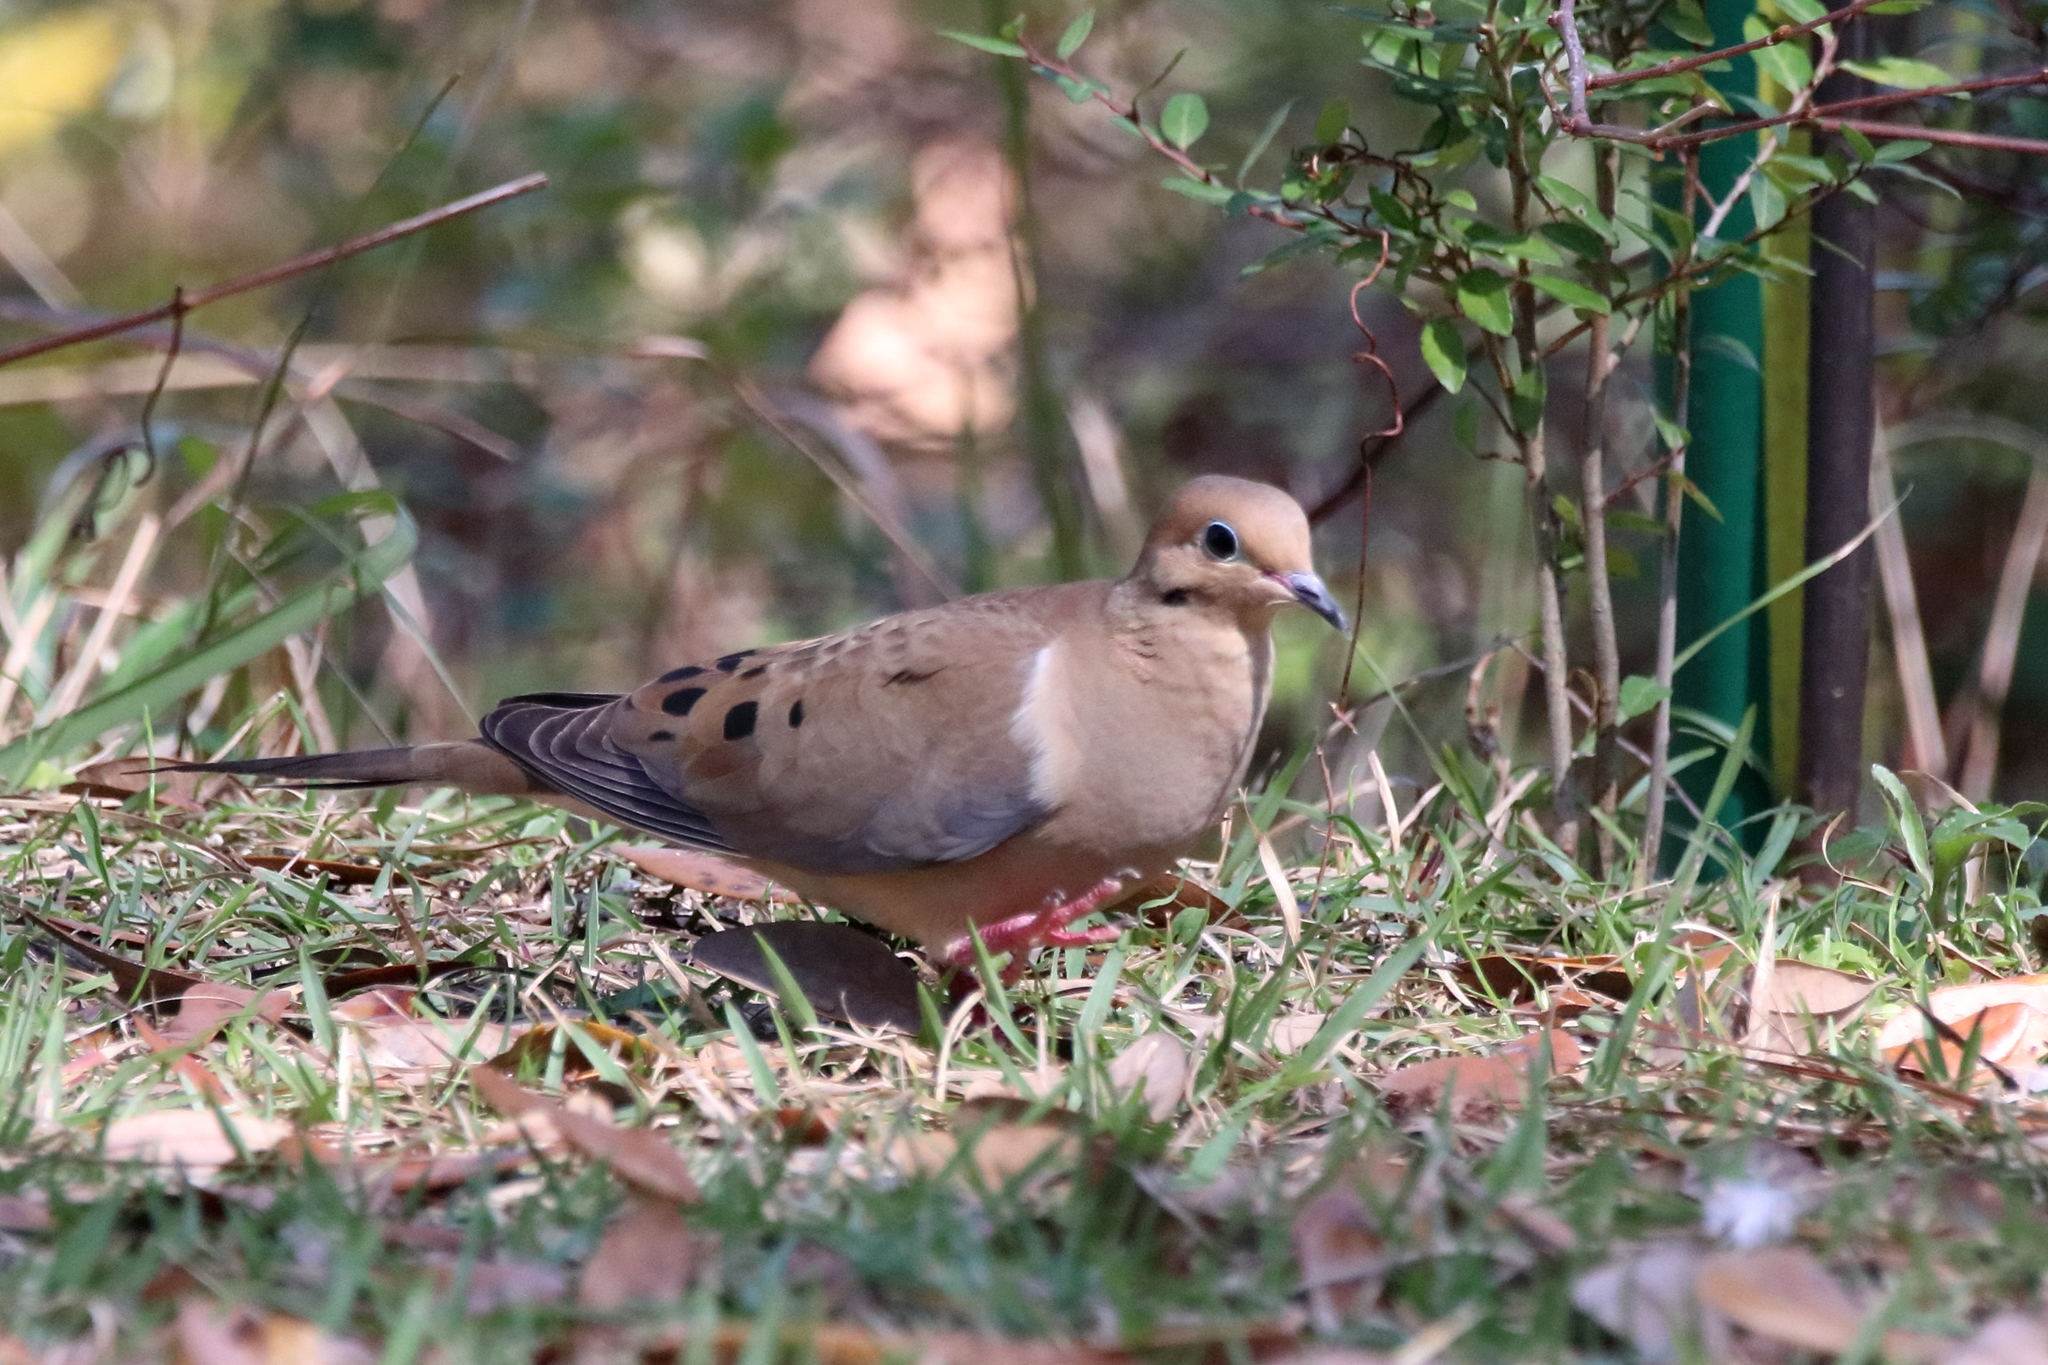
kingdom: Animalia
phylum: Chordata
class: Aves
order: Columbiformes
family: Columbidae
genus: Zenaida
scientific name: Zenaida macroura
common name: Mourning dove
